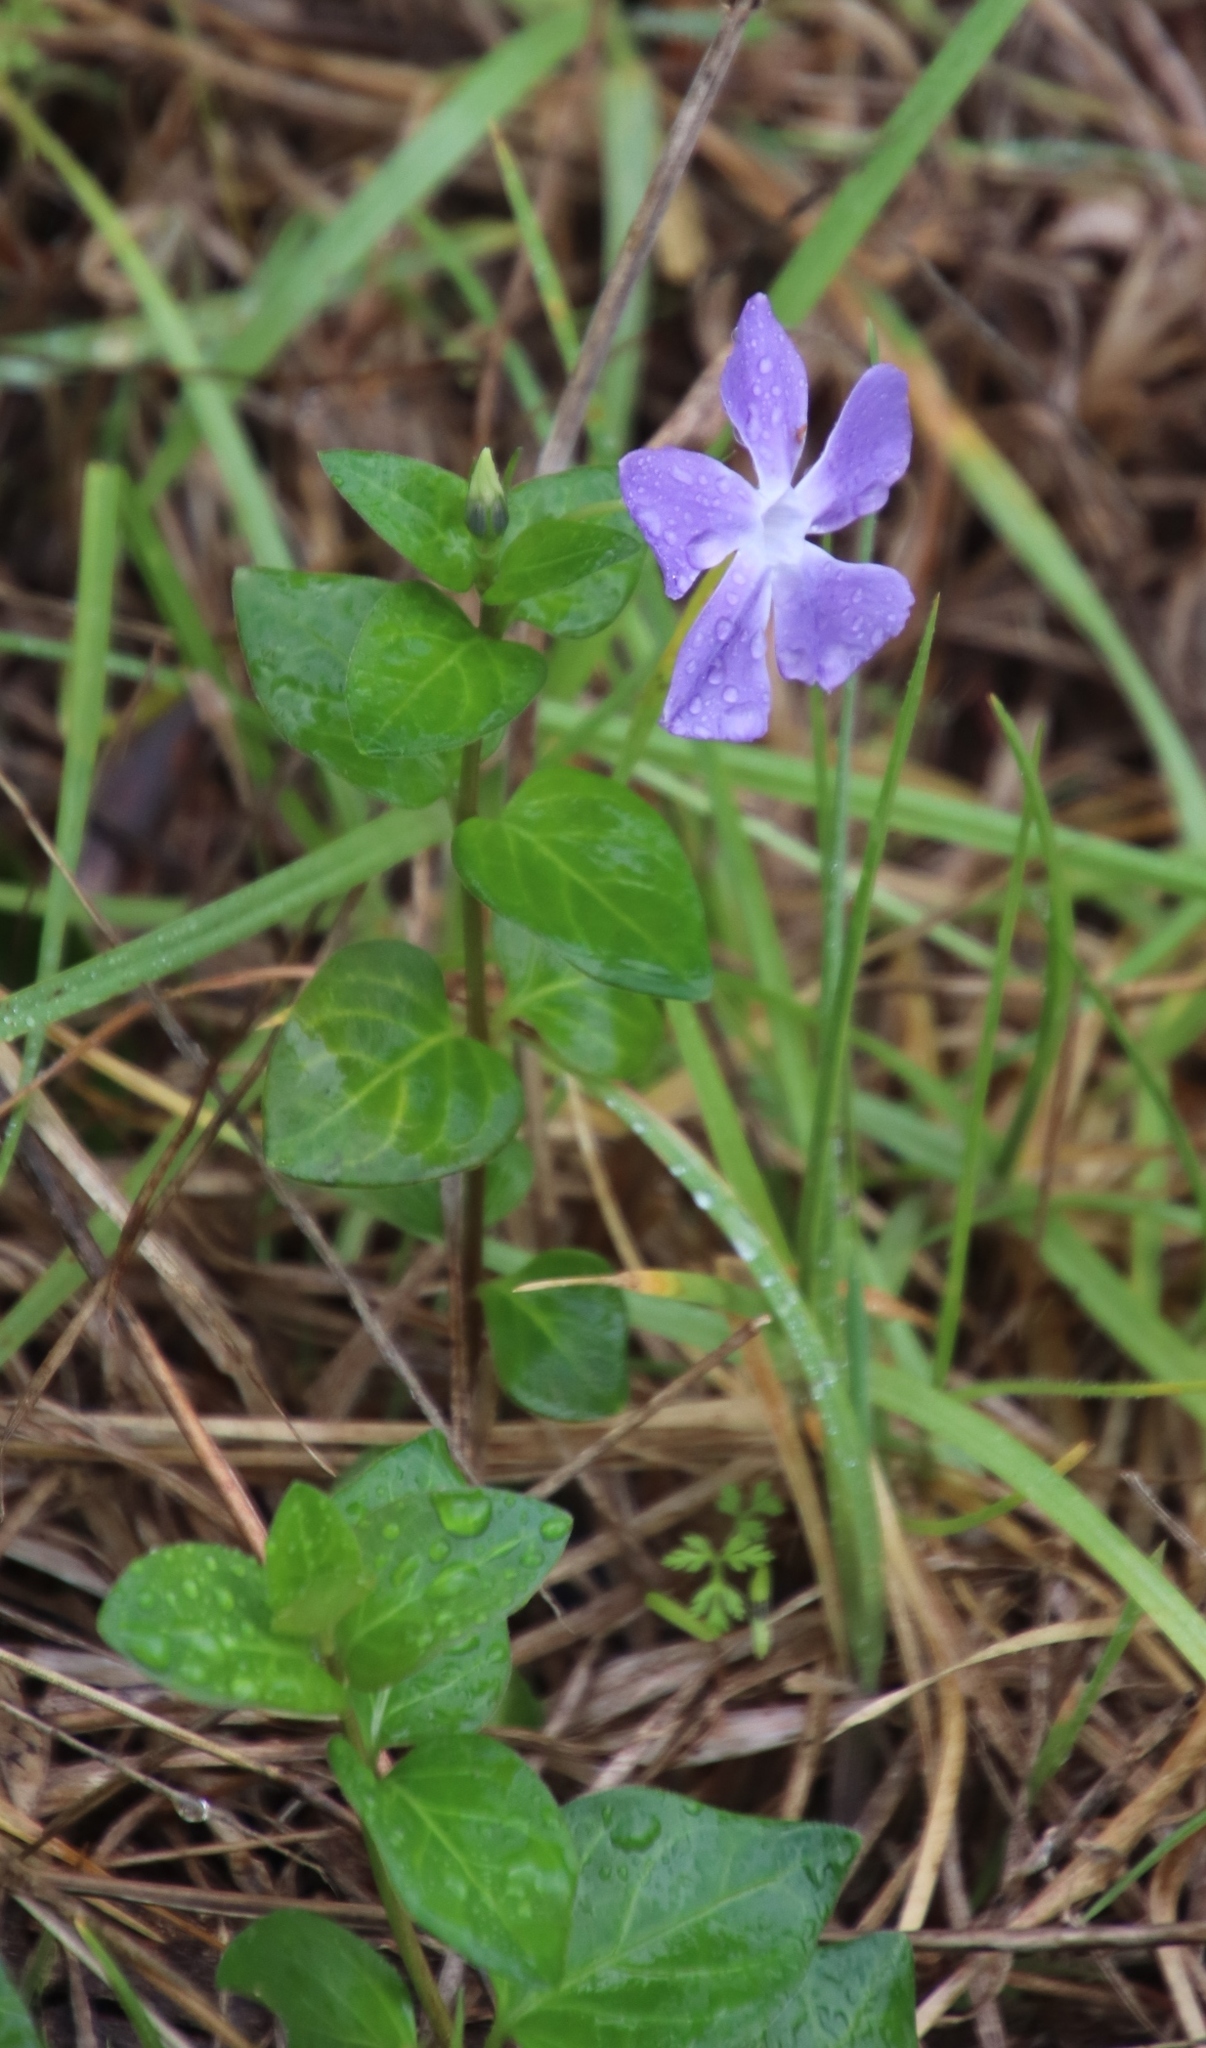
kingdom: Plantae
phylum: Tracheophyta
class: Magnoliopsida
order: Gentianales
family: Apocynaceae
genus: Vinca
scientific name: Vinca major
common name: Greater periwinkle
